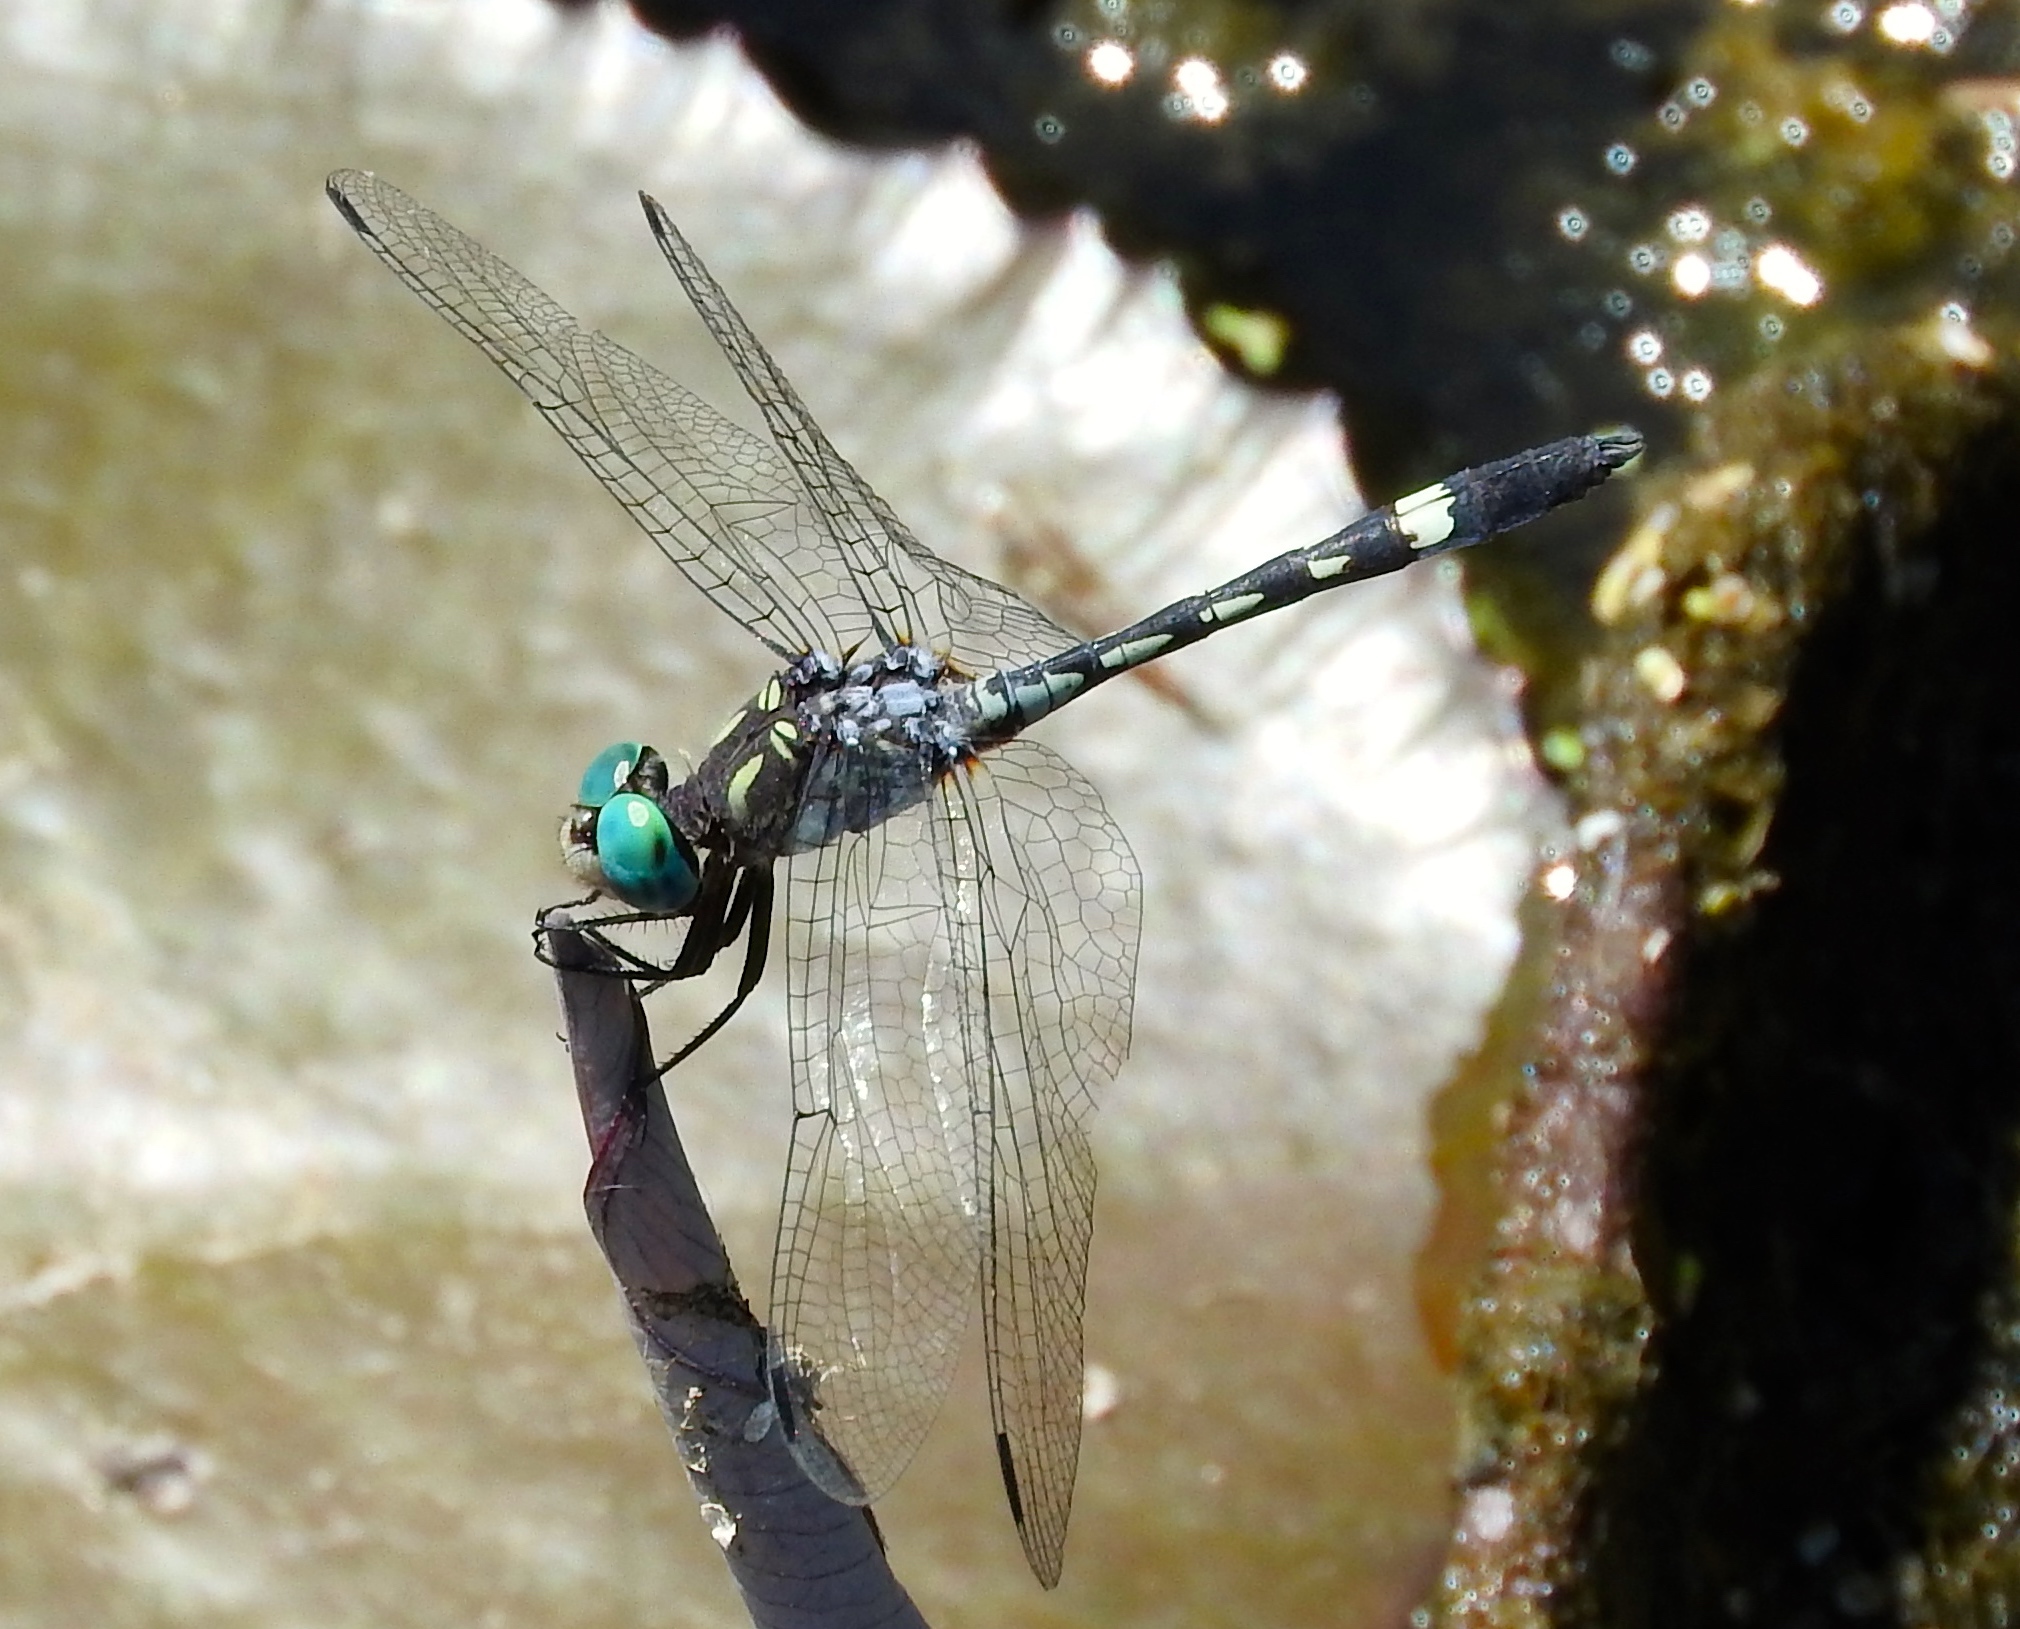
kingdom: Animalia
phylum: Arthropoda
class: Insecta
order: Odonata
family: Libellulidae
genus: Micrathyria
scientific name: Micrathyria hagenii
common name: Thornbush dasher
